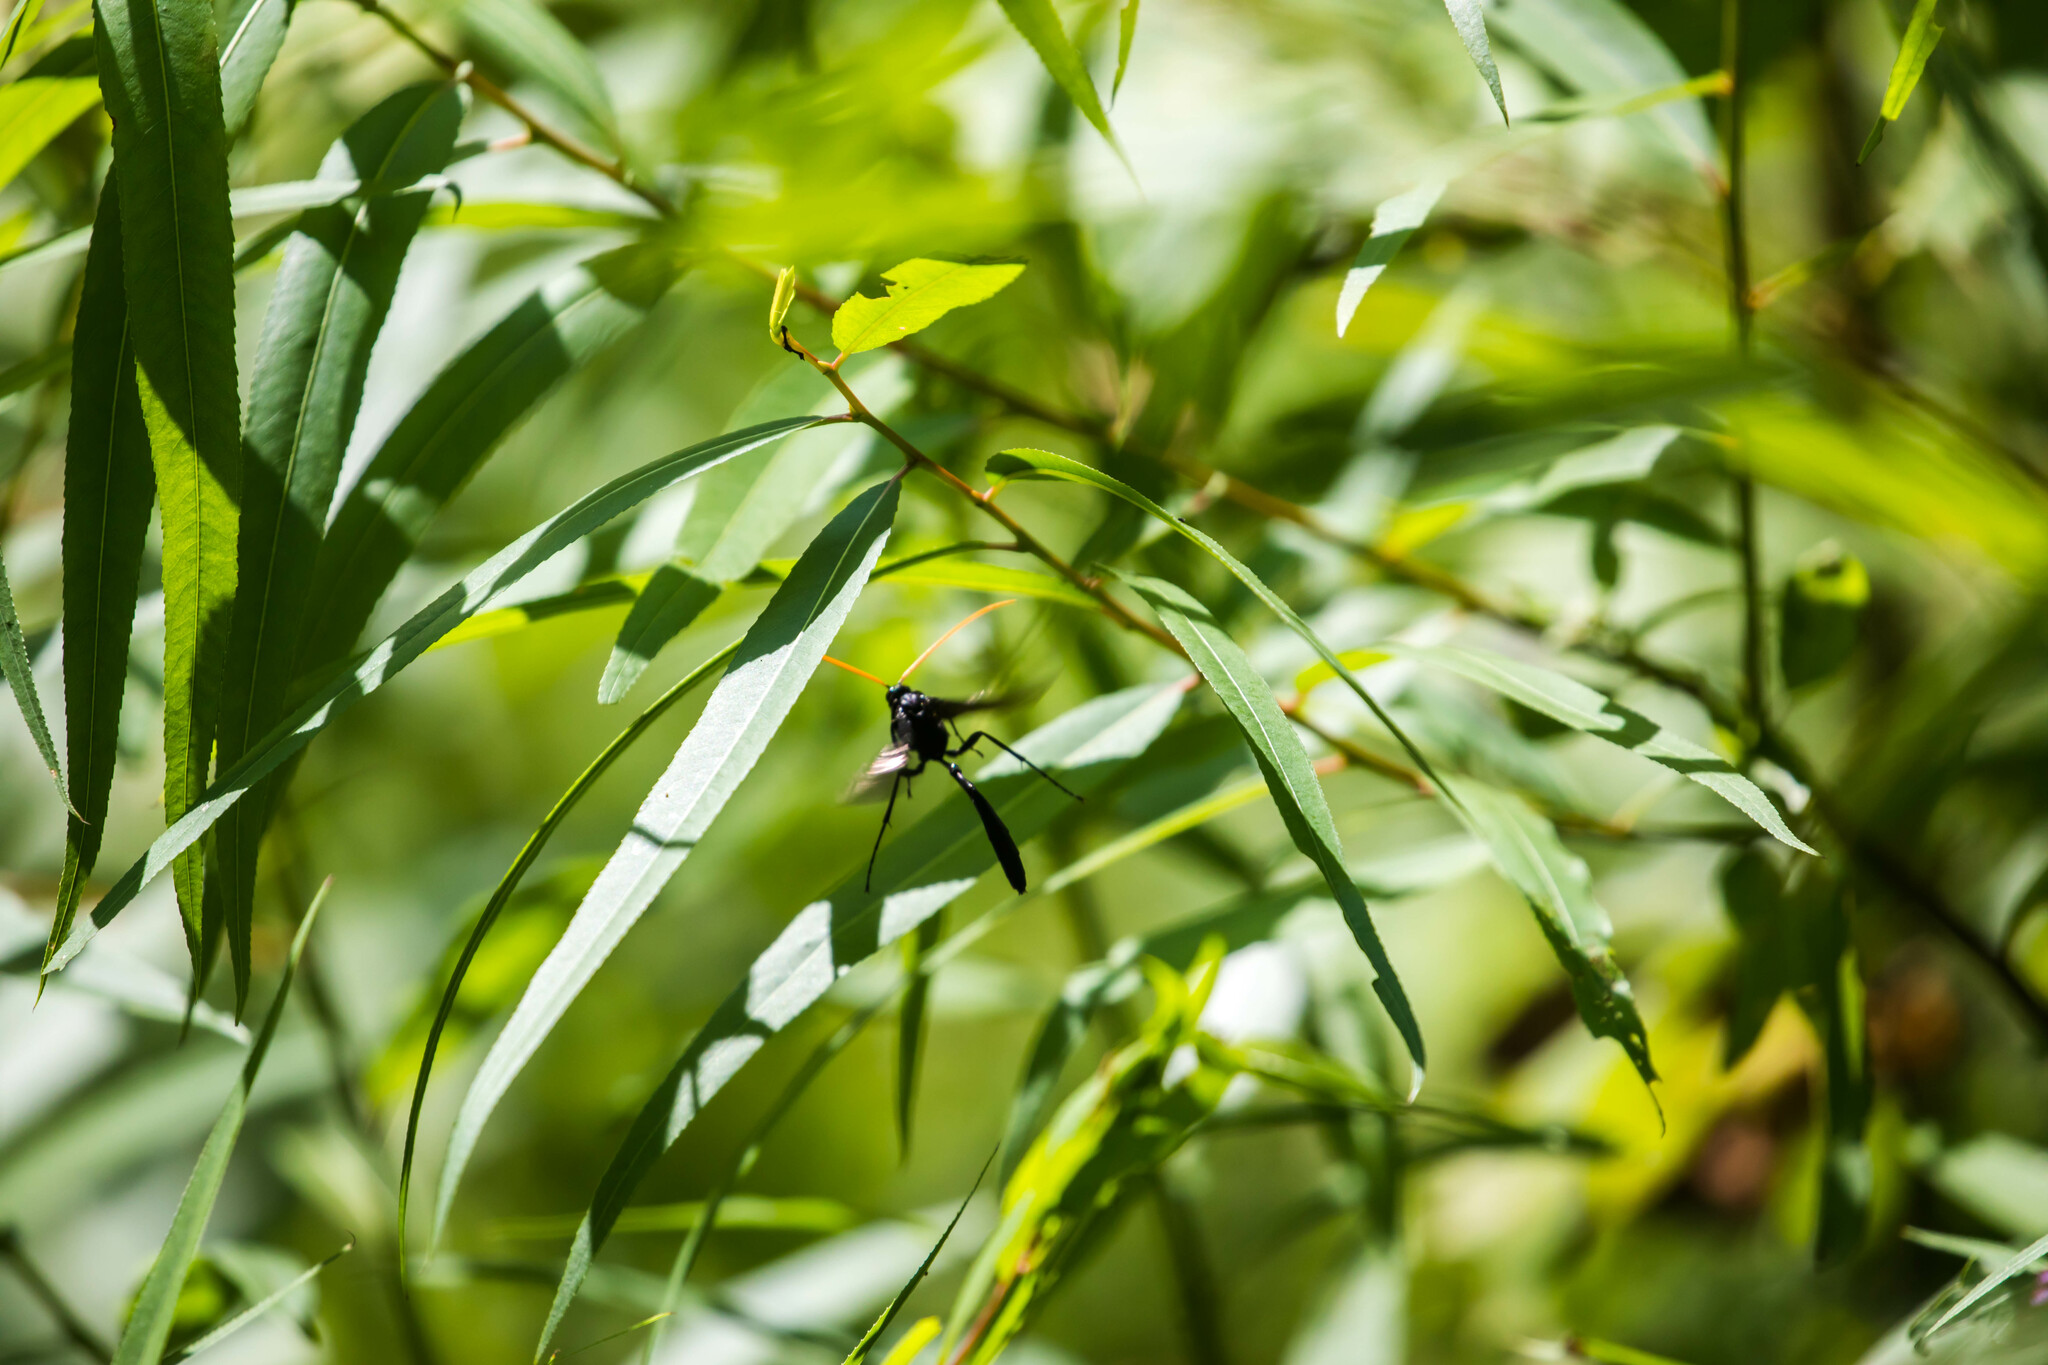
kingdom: Animalia
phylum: Arthropoda
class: Insecta
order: Hymenoptera
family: Ichneumonidae
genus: Thyreodon
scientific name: Thyreodon atricolor
